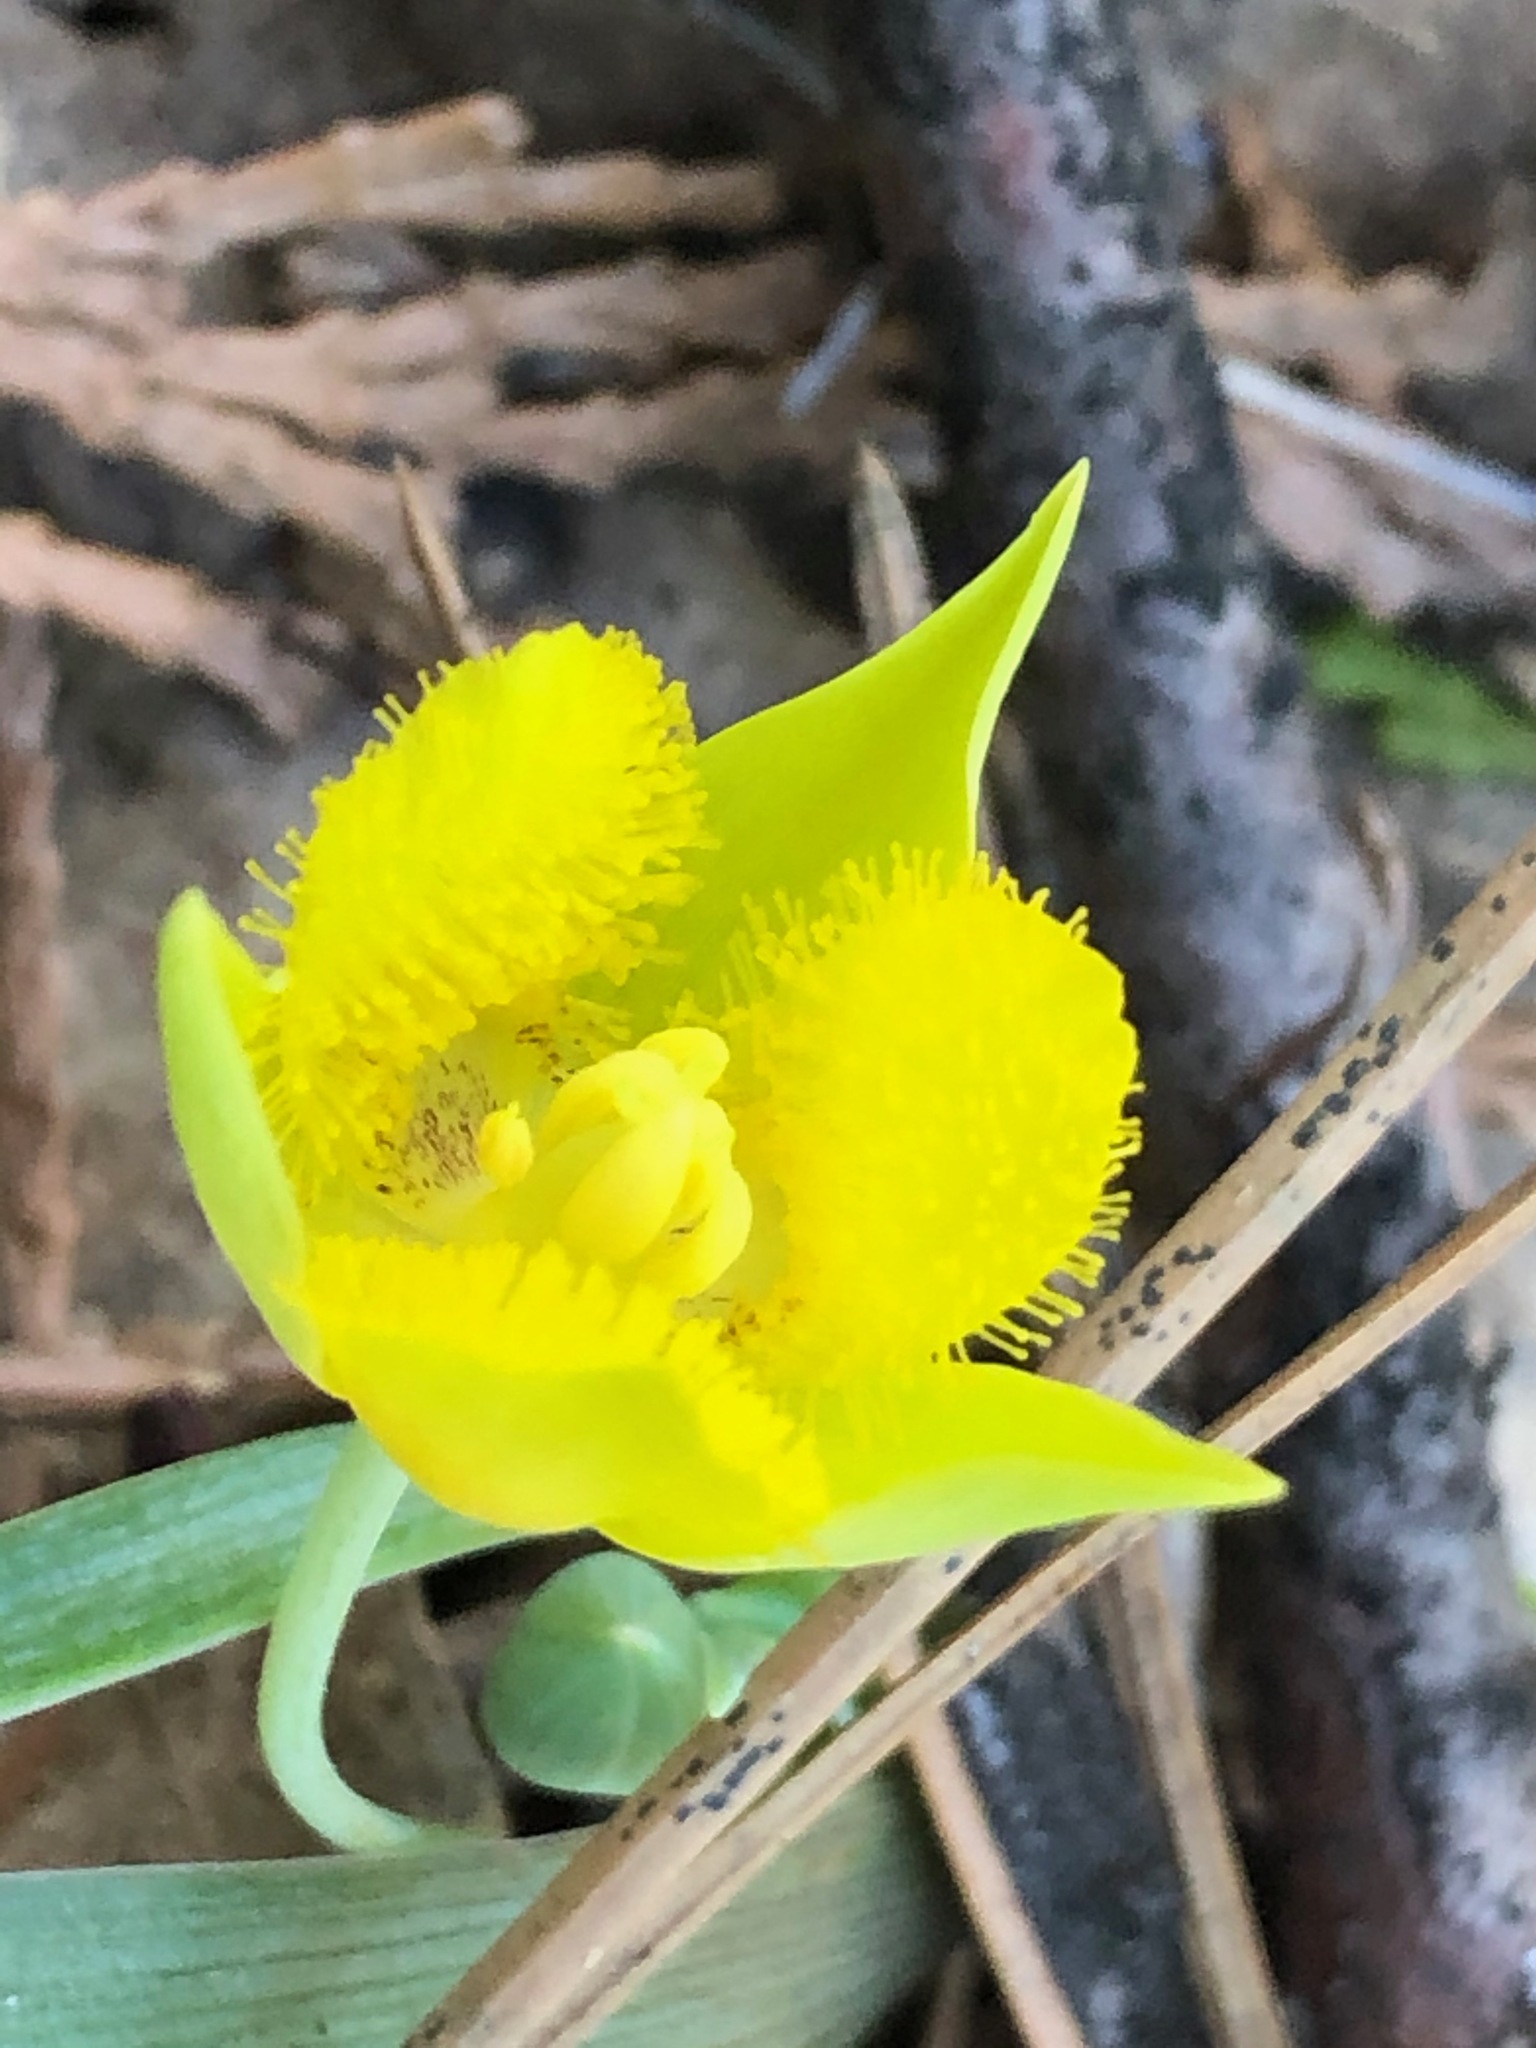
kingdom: Plantae
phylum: Tracheophyta
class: Liliopsida
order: Liliales
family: Liliaceae
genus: Calochortus
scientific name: Calochortus monophyllus
